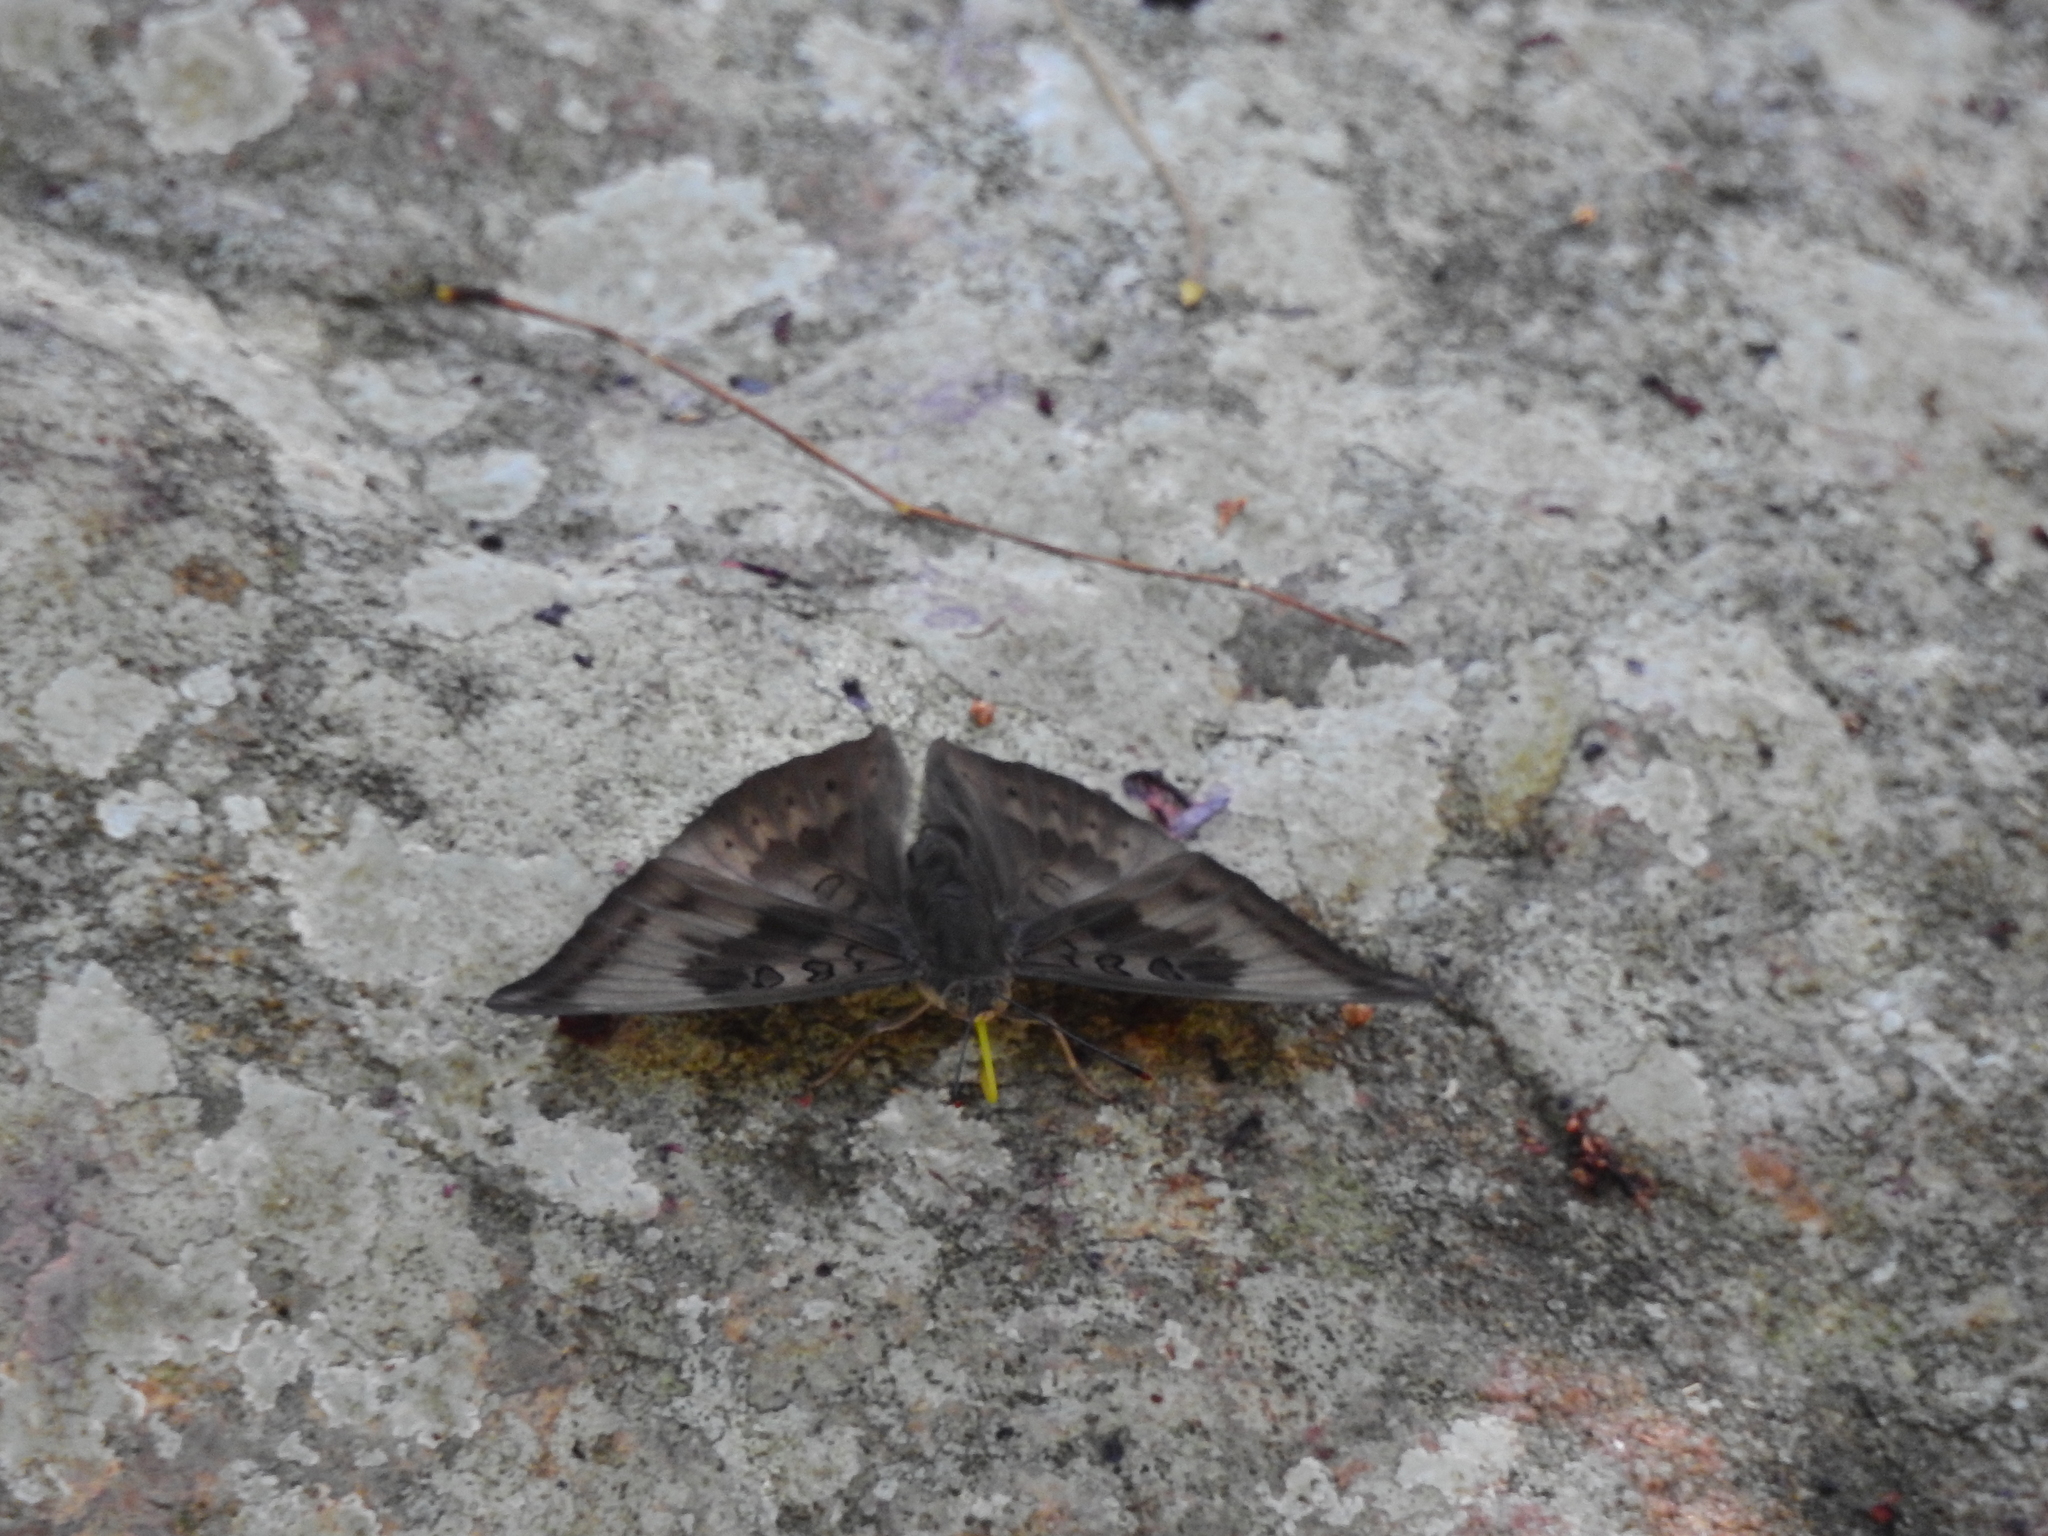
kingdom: Animalia
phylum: Arthropoda
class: Insecta
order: Lepidoptera
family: Nymphalidae
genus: Euthalia
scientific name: Euthalia aconthea
